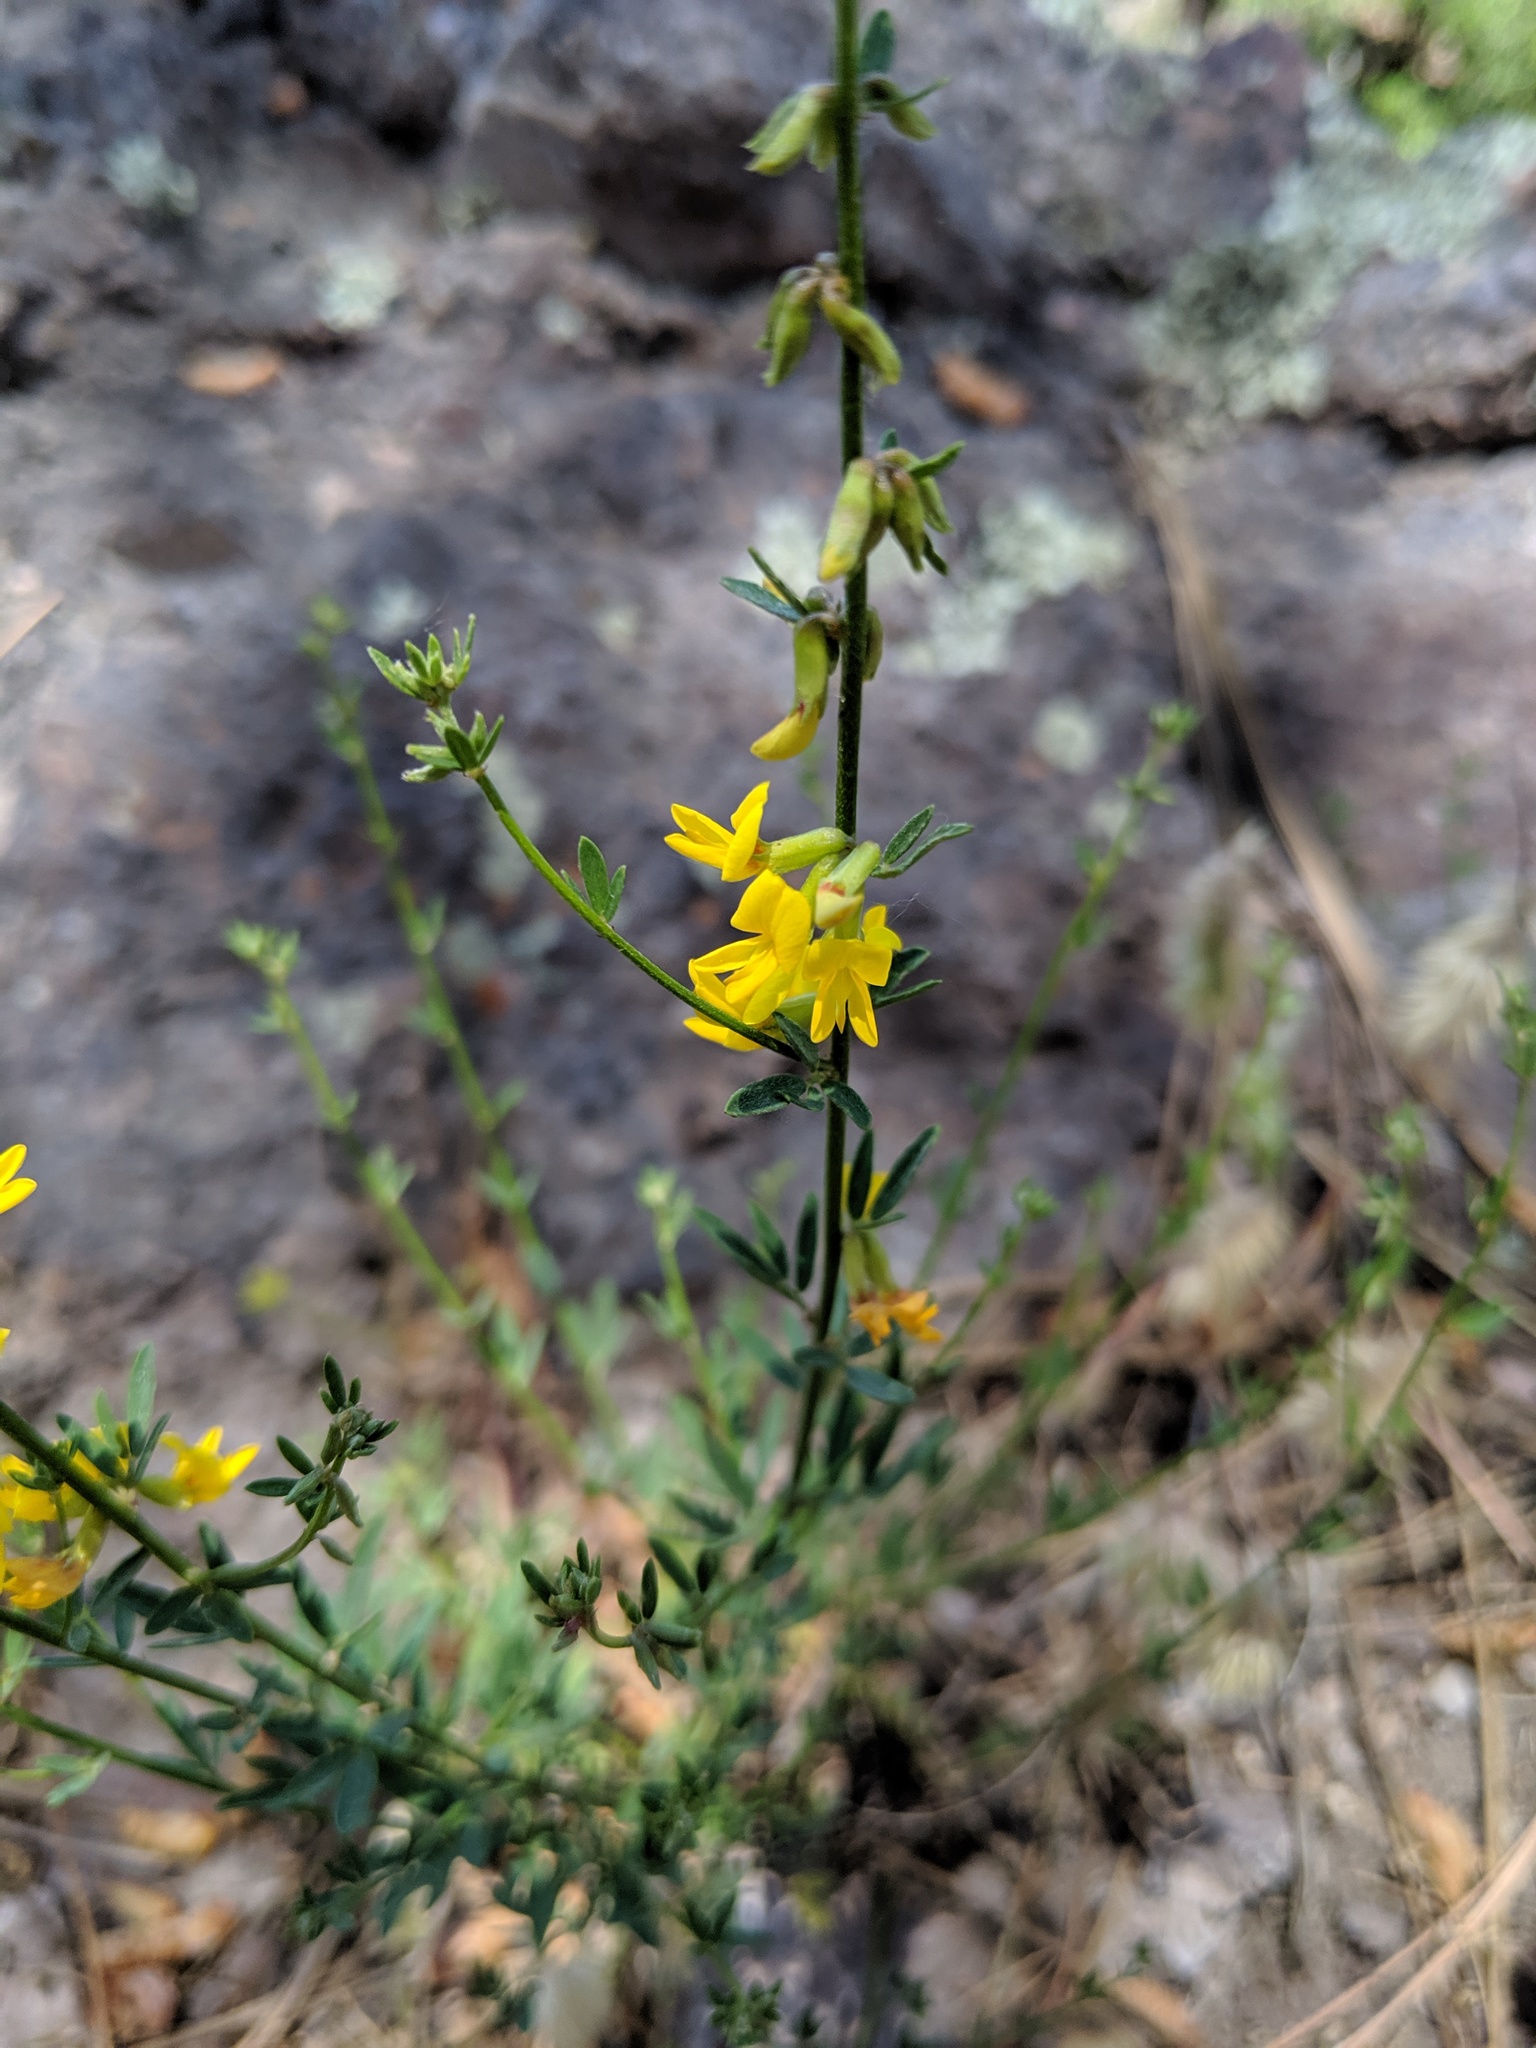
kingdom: Plantae
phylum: Tracheophyta
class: Magnoliopsida
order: Fabales
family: Fabaceae
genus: Acmispon
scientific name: Acmispon glaber
